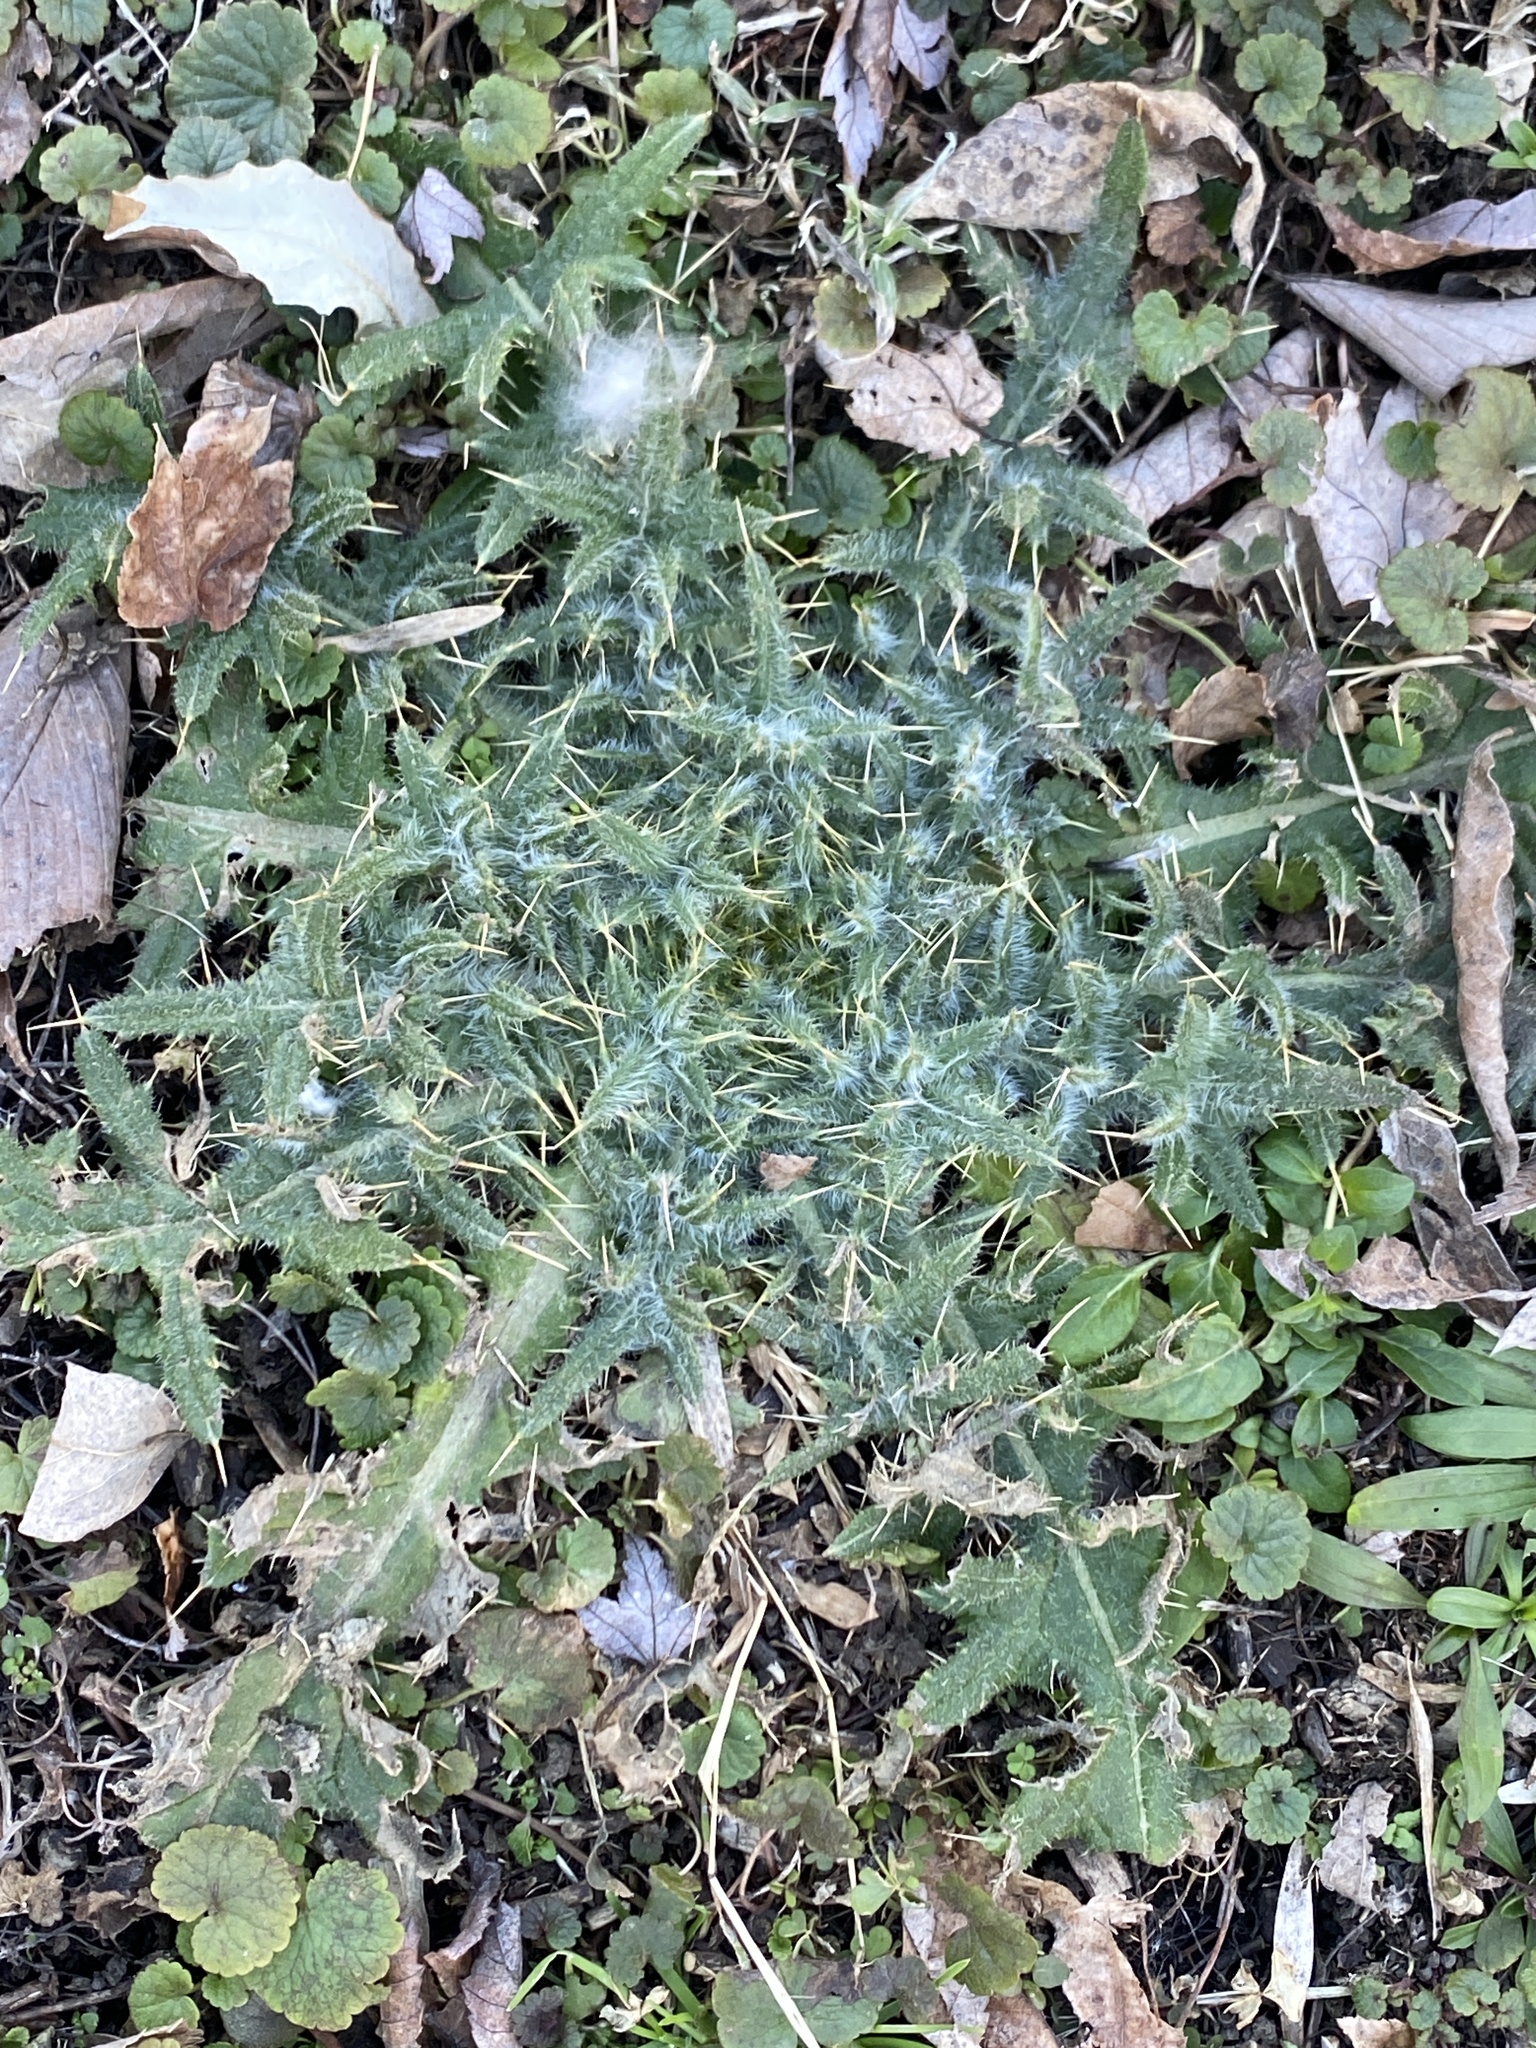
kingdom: Plantae
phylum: Tracheophyta
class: Magnoliopsida
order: Asterales
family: Asteraceae
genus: Cirsium
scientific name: Cirsium vulgare
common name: Bull thistle
